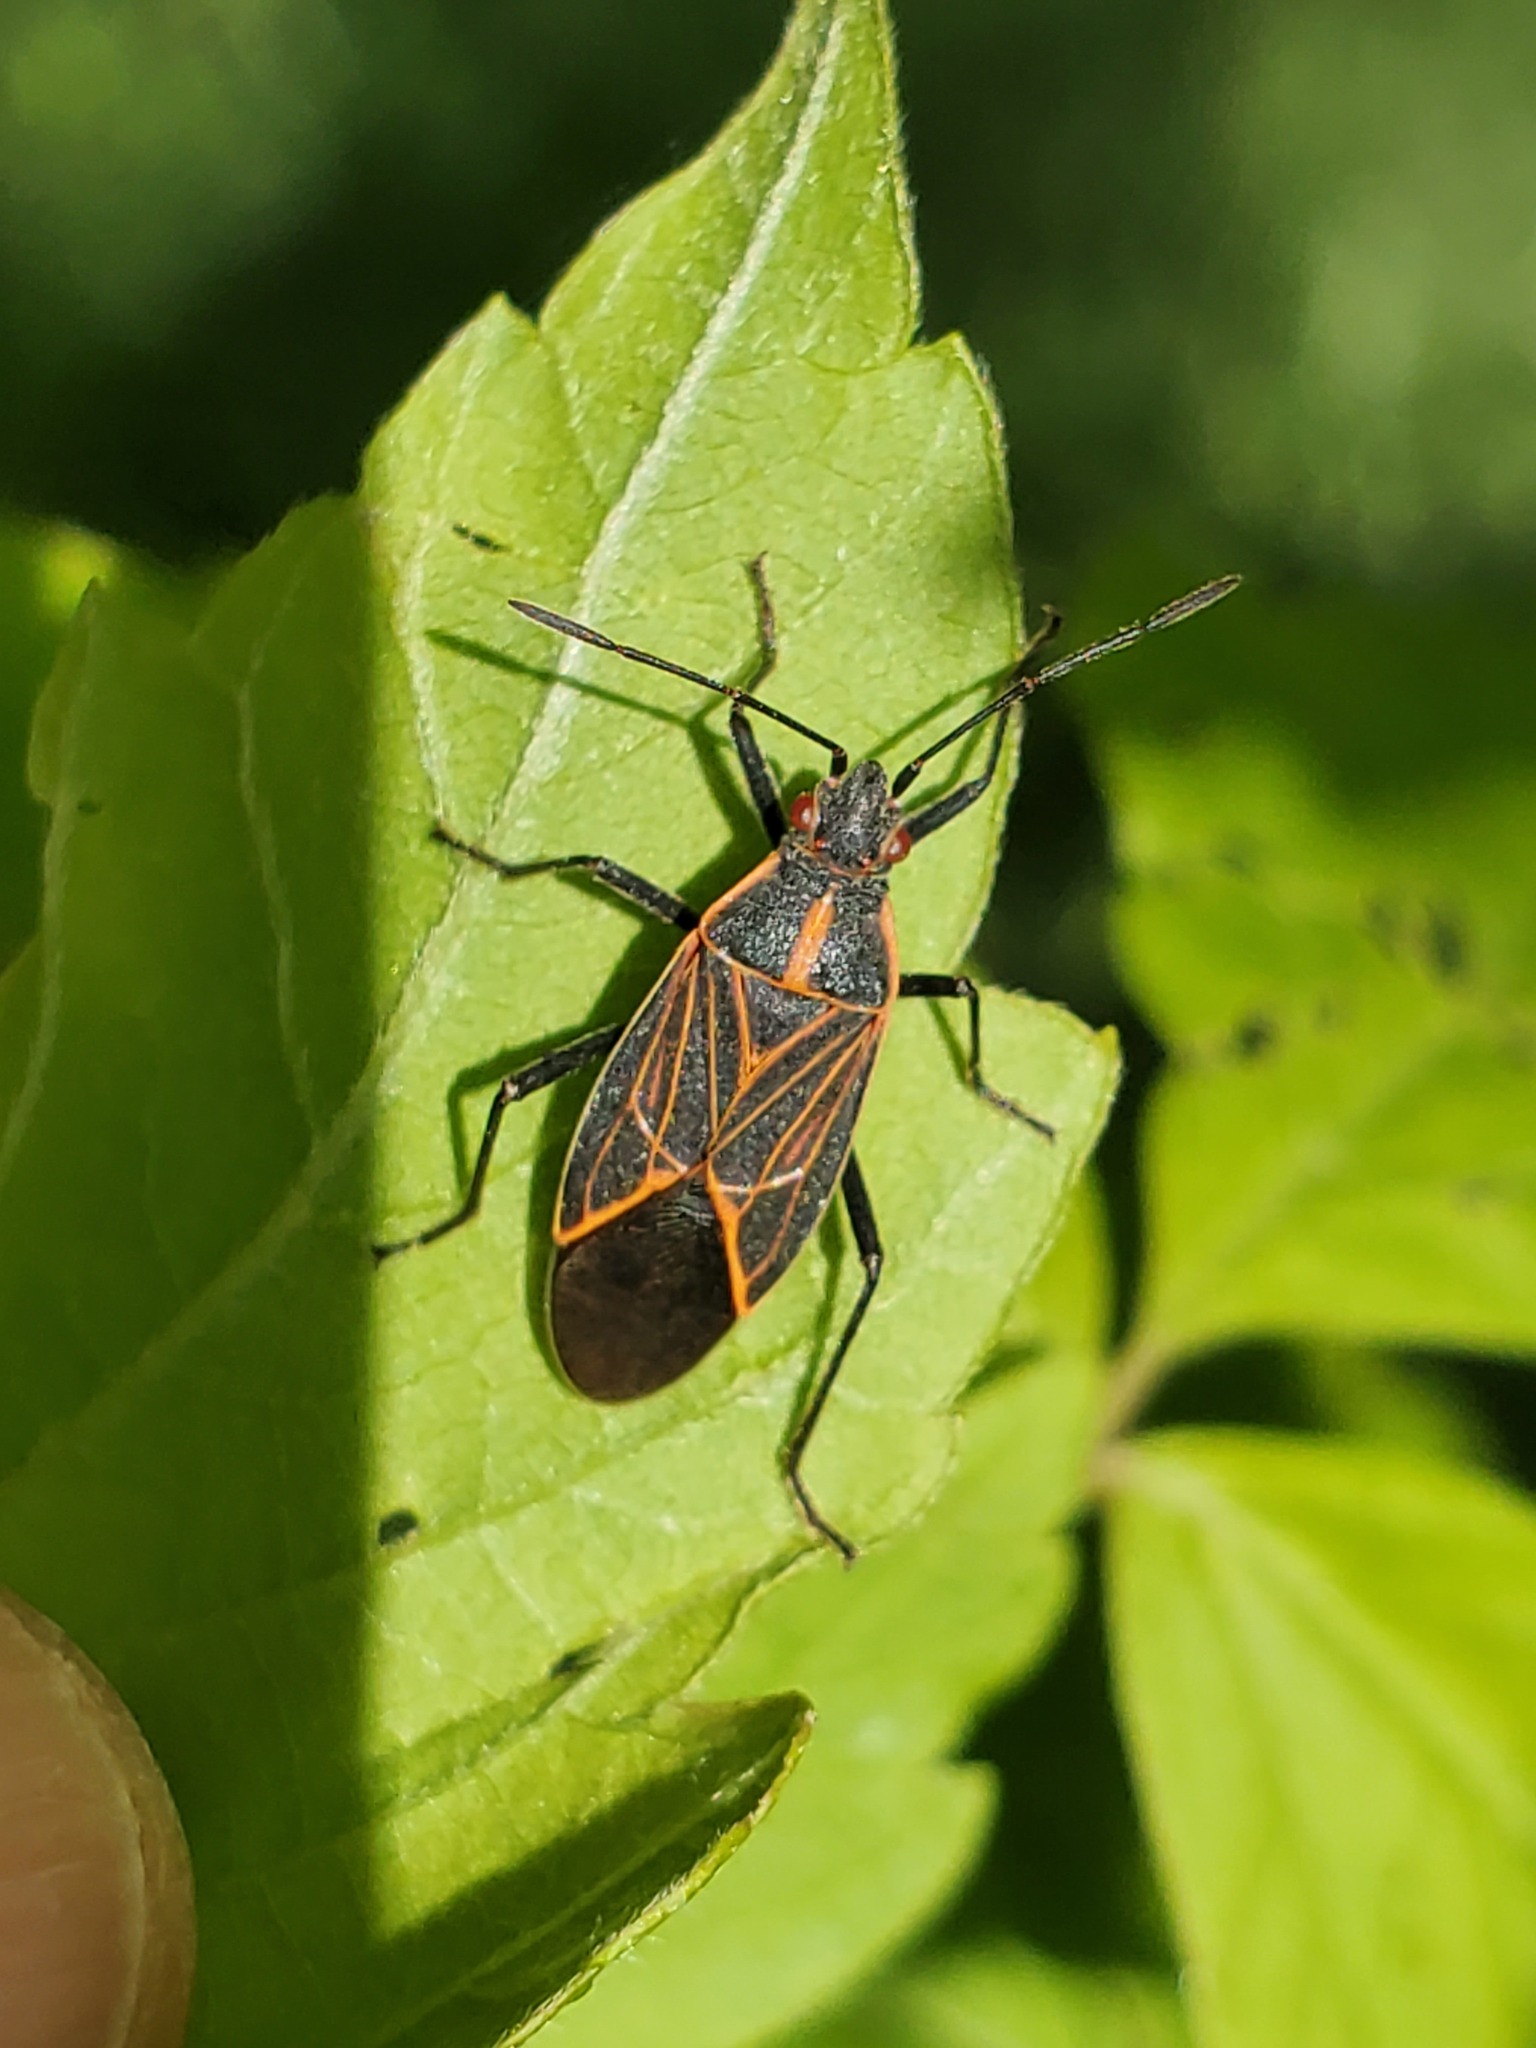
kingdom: Animalia
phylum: Arthropoda
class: Insecta
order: Hemiptera
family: Rhopalidae
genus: Boisea
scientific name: Boisea rubrolineata
